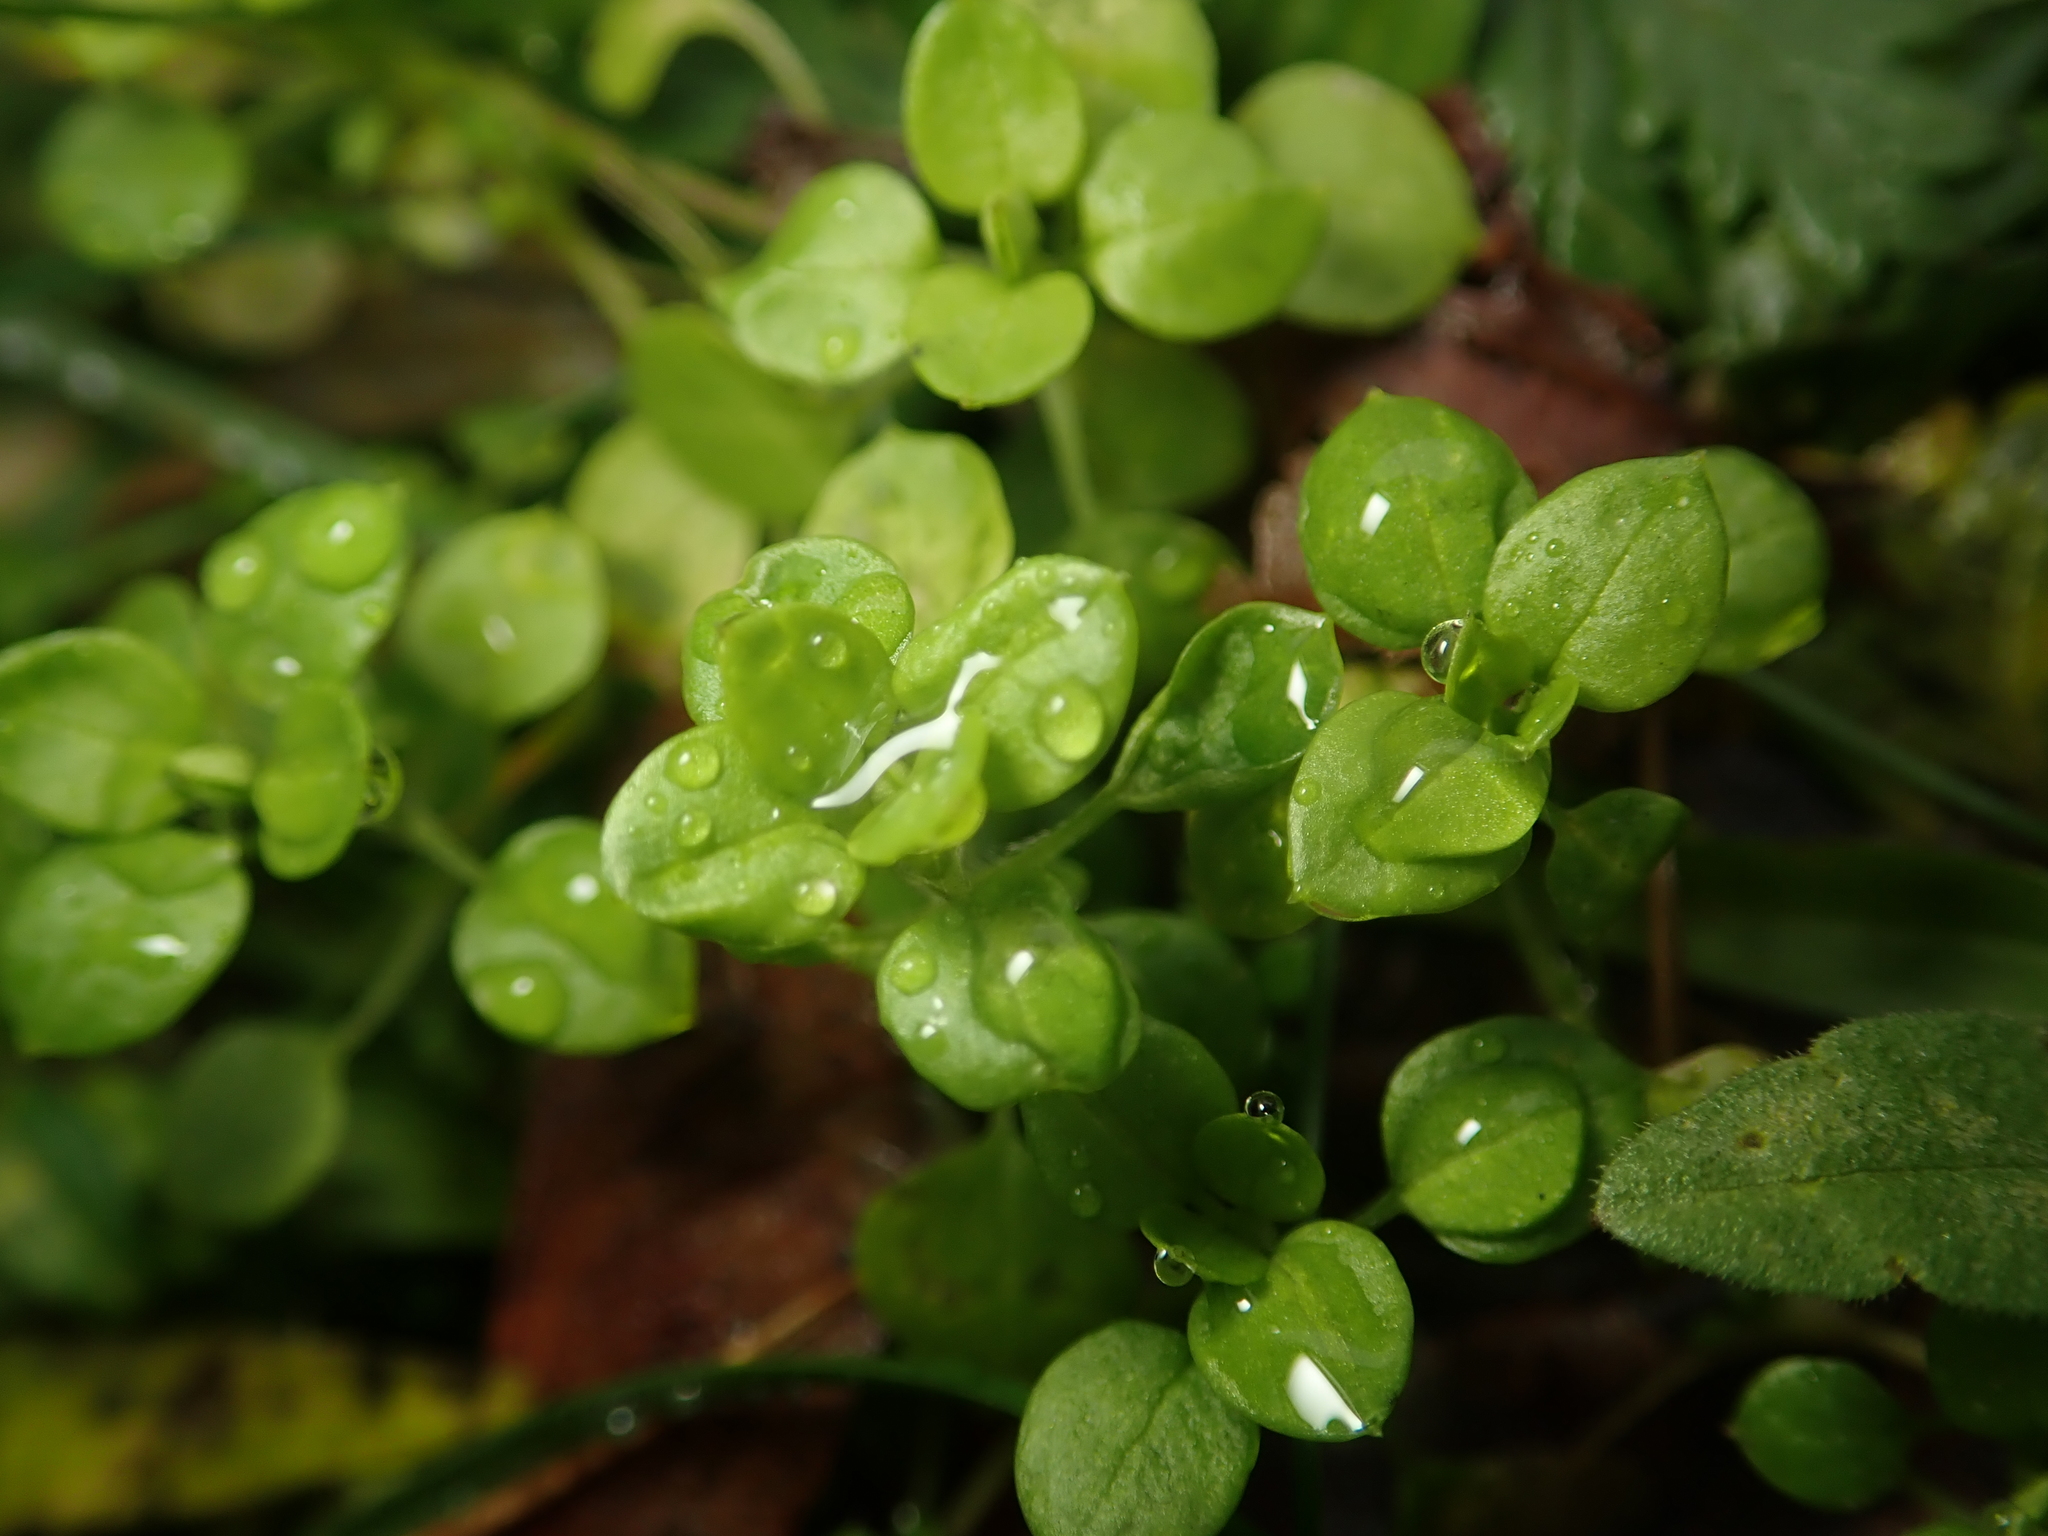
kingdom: Plantae
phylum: Tracheophyta
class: Magnoliopsida
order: Caryophyllales
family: Caryophyllaceae
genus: Stellaria
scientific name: Stellaria media
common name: Common chickweed
